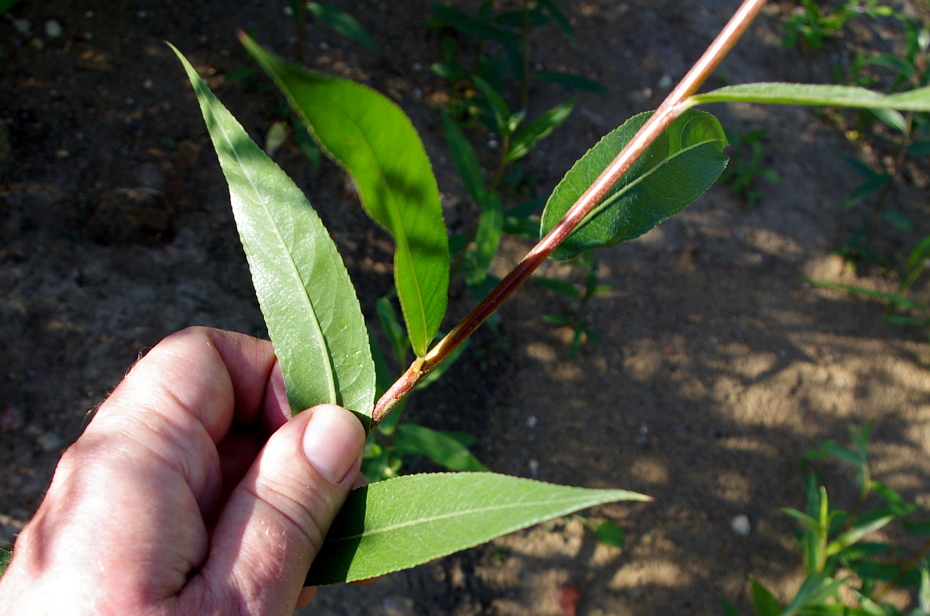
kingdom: Plantae
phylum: Tracheophyta
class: Magnoliopsida
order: Malpighiales
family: Salicaceae
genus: Salix
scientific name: Salix alba
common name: White willow
